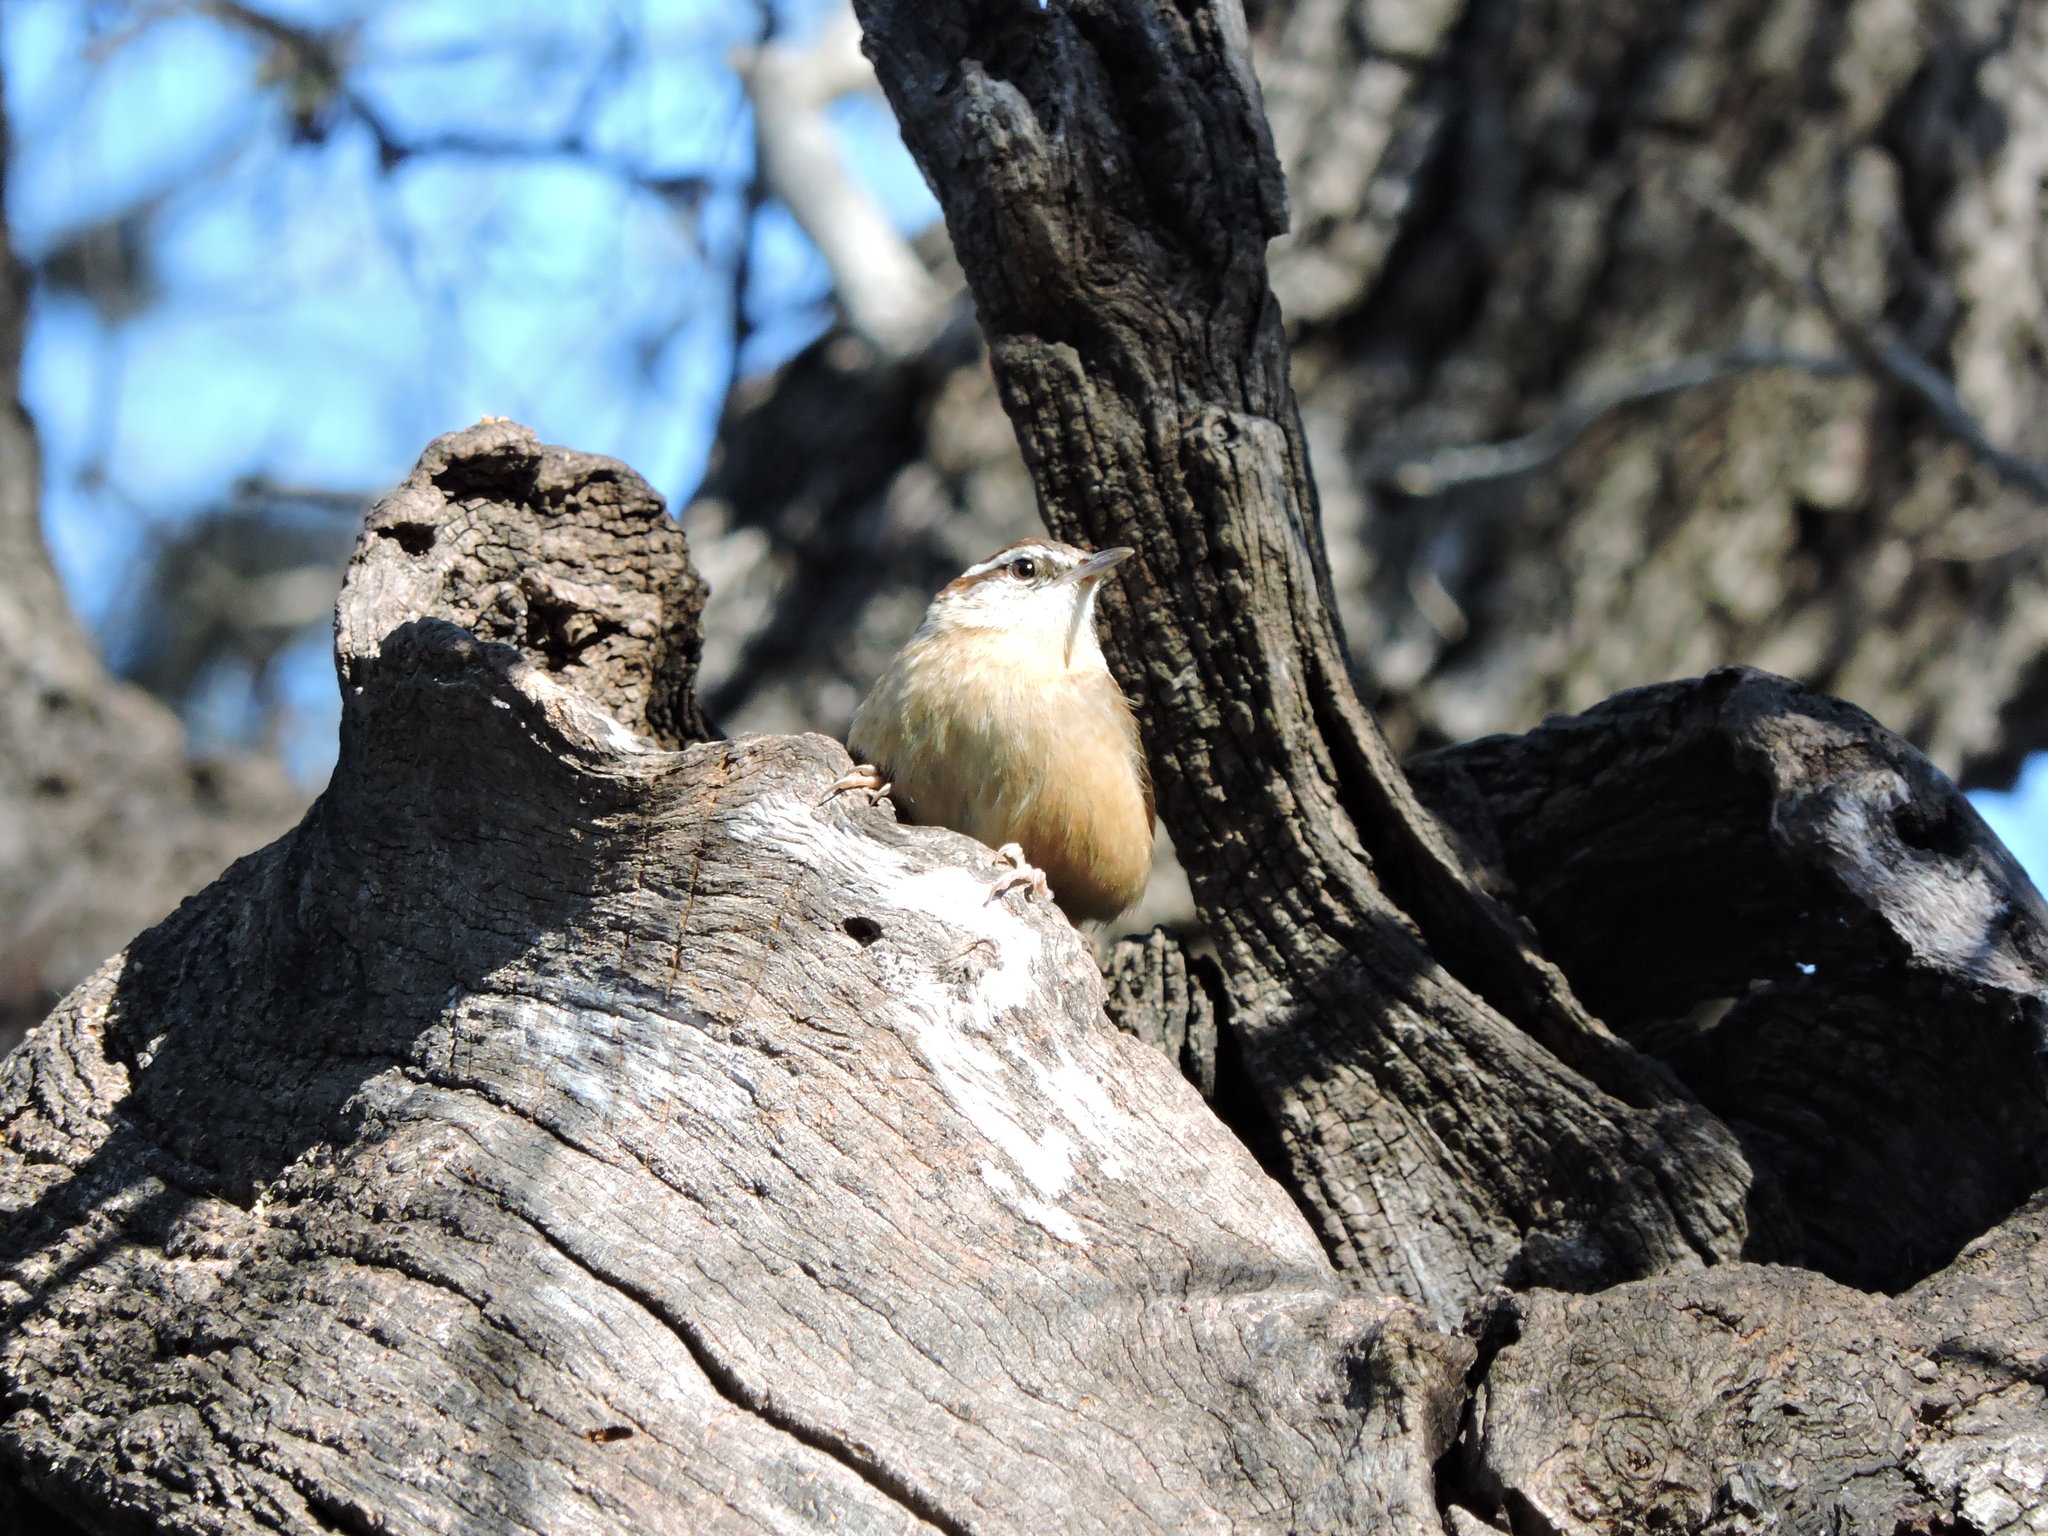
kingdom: Animalia
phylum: Chordata
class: Aves
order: Passeriformes
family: Troglodytidae
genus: Thryothorus
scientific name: Thryothorus ludovicianus
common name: Carolina wren
